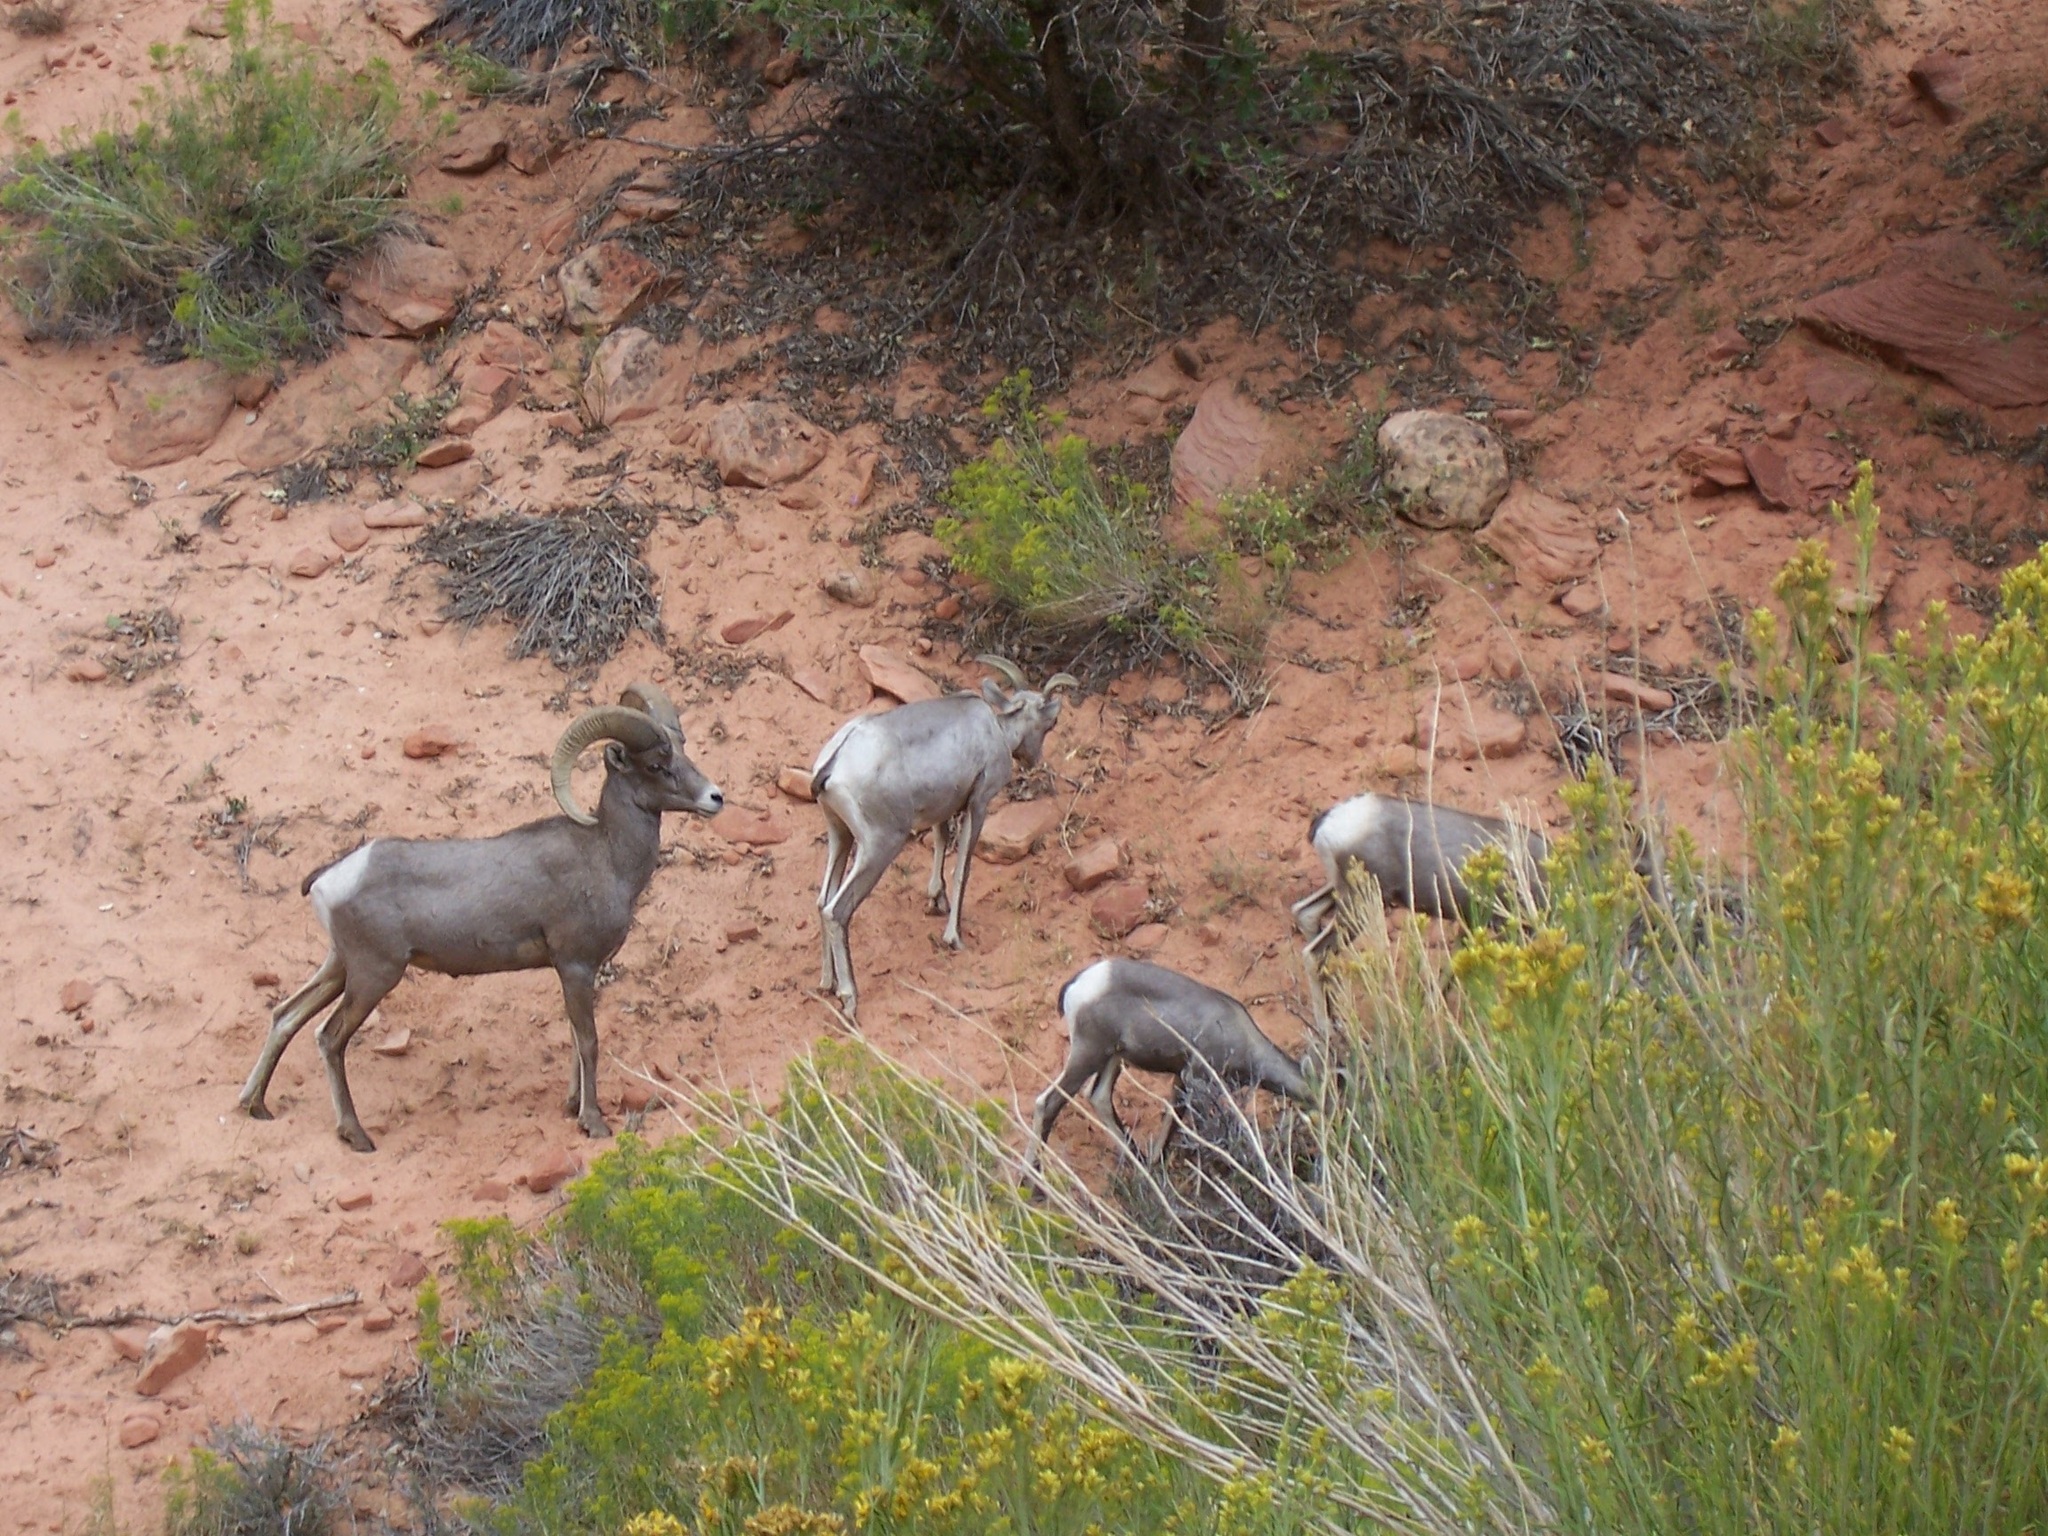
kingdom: Animalia
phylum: Chordata
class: Mammalia
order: Artiodactyla
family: Bovidae
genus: Ovis
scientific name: Ovis canadensis
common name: Bighorn sheep
